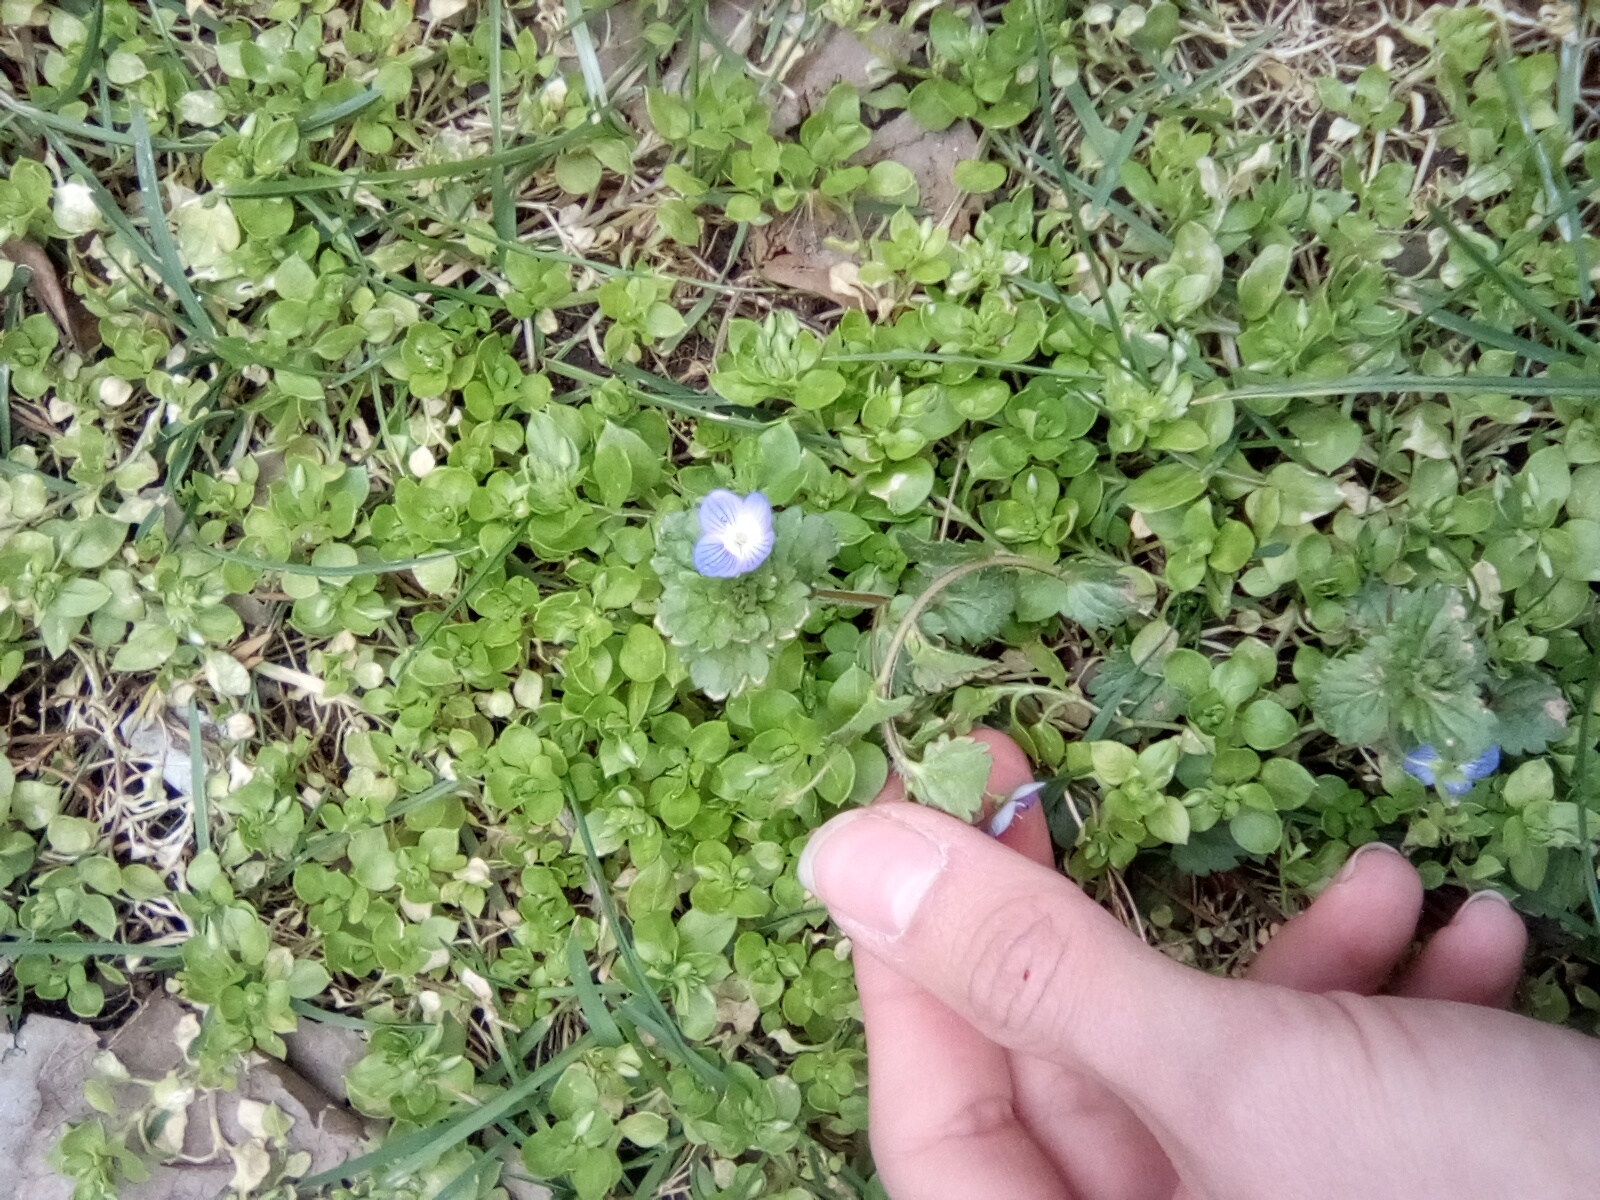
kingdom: Plantae
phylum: Tracheophyta
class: Magnoliopsida
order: Lamiales
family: Plantaginaceae
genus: Veronica
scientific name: Veronica persica
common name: Common field-speedwell
